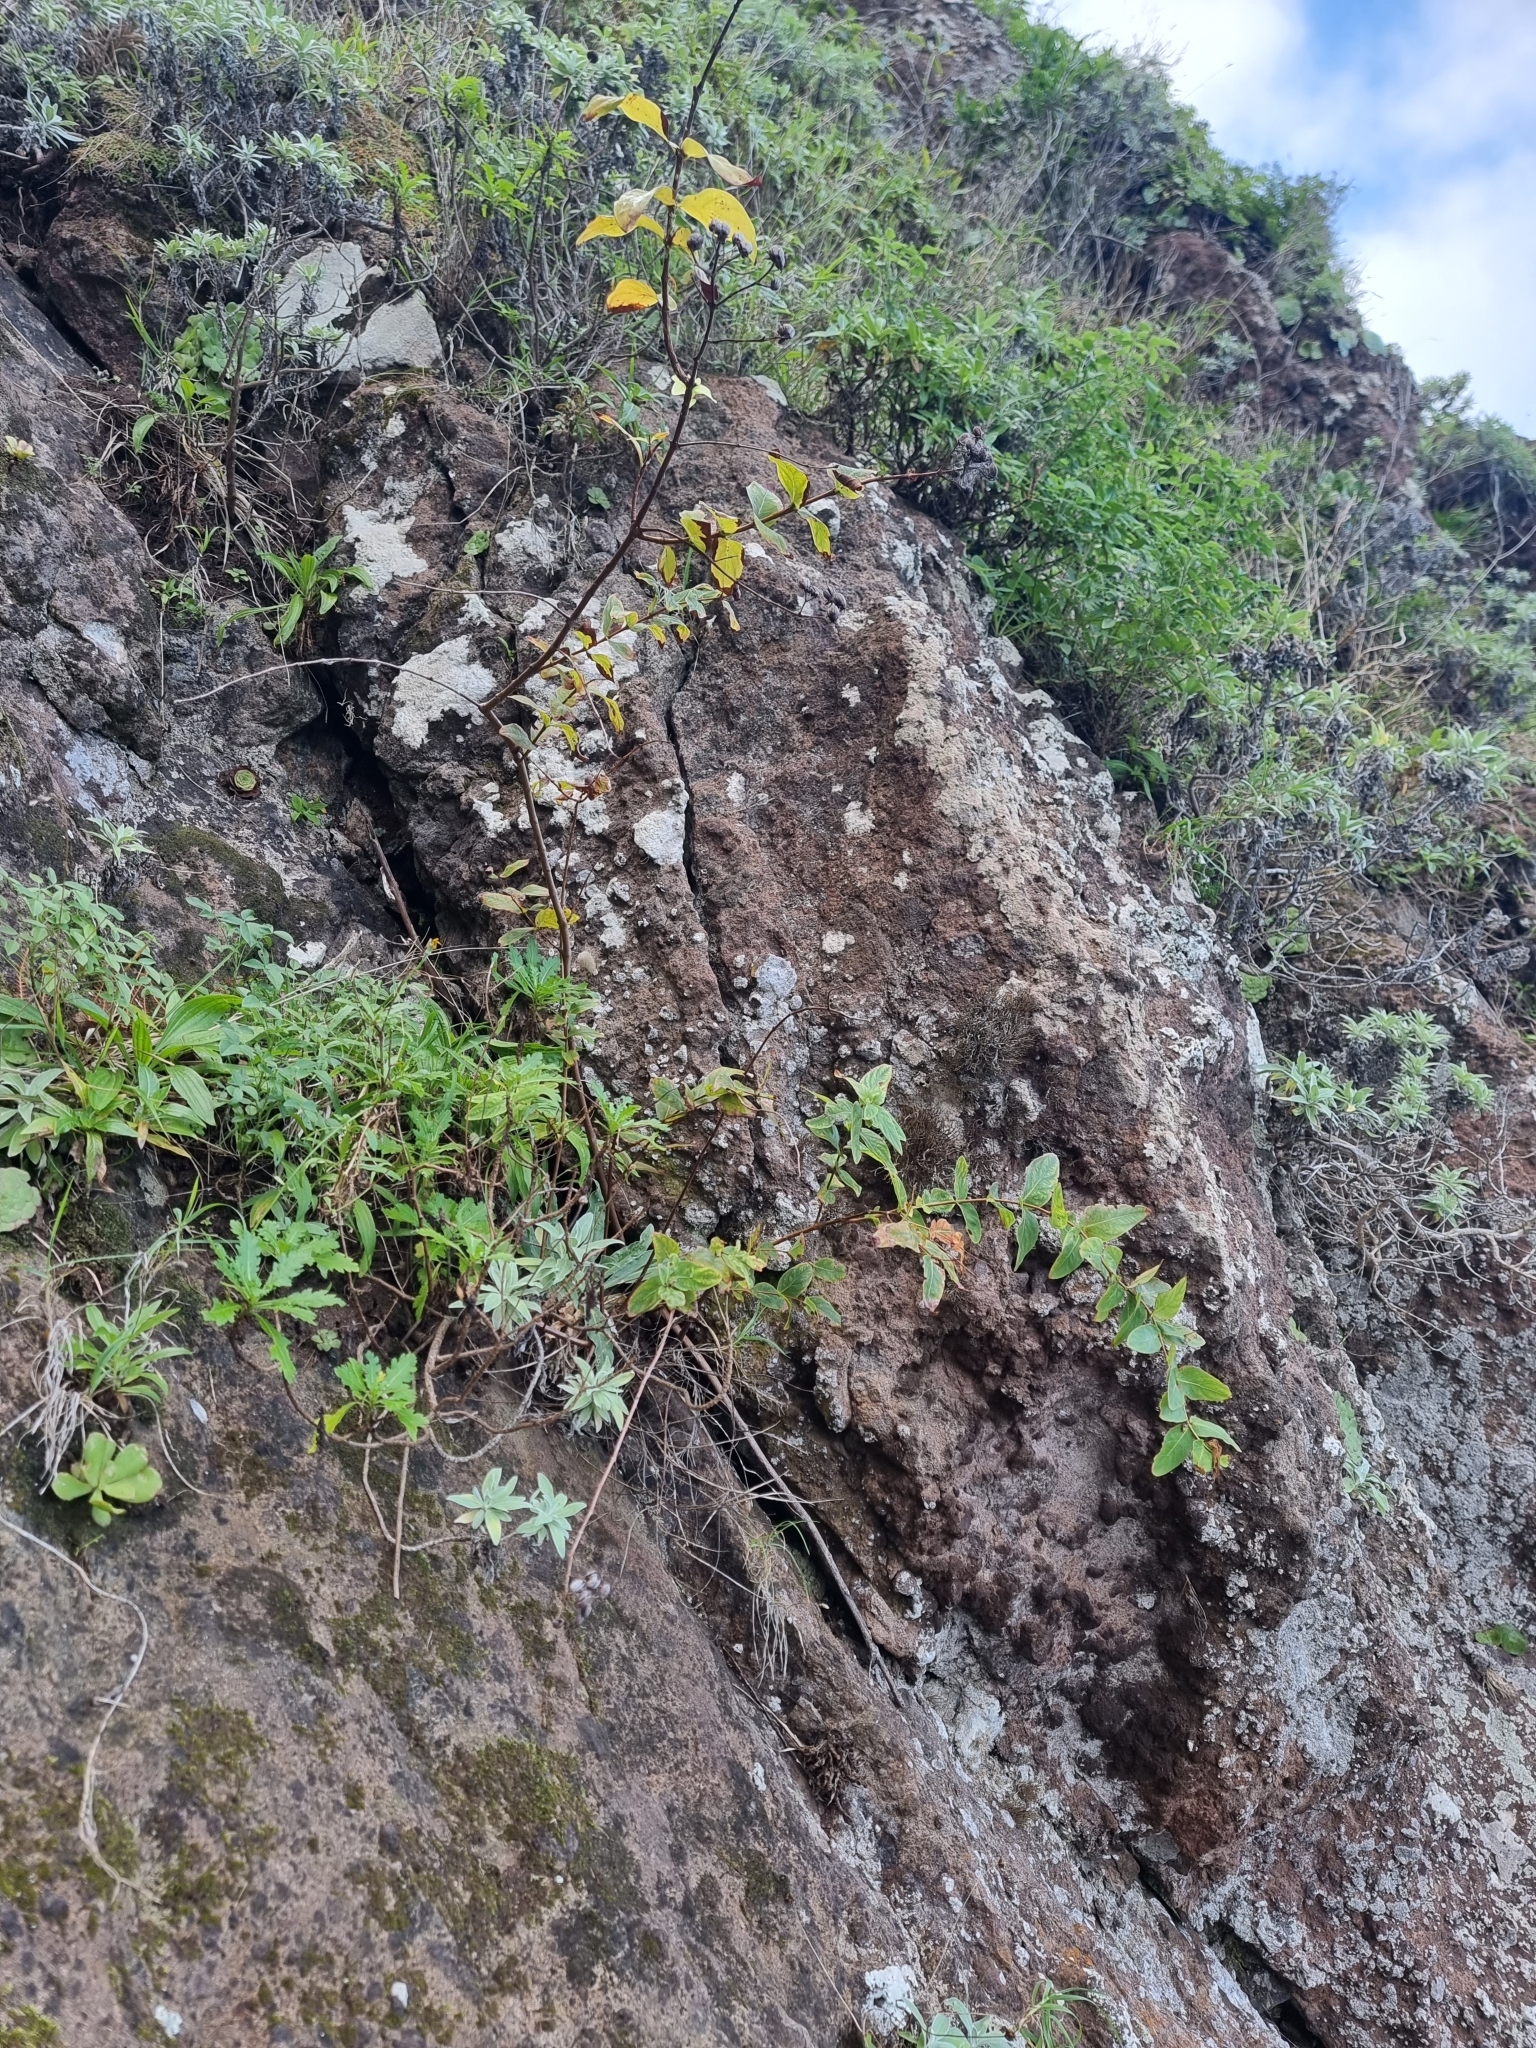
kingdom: Plantae
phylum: Tracheophyta
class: Magnoliopsida
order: Malpighiales
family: Hypericaceae
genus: Hypericum
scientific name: Hypericum grandifolium
